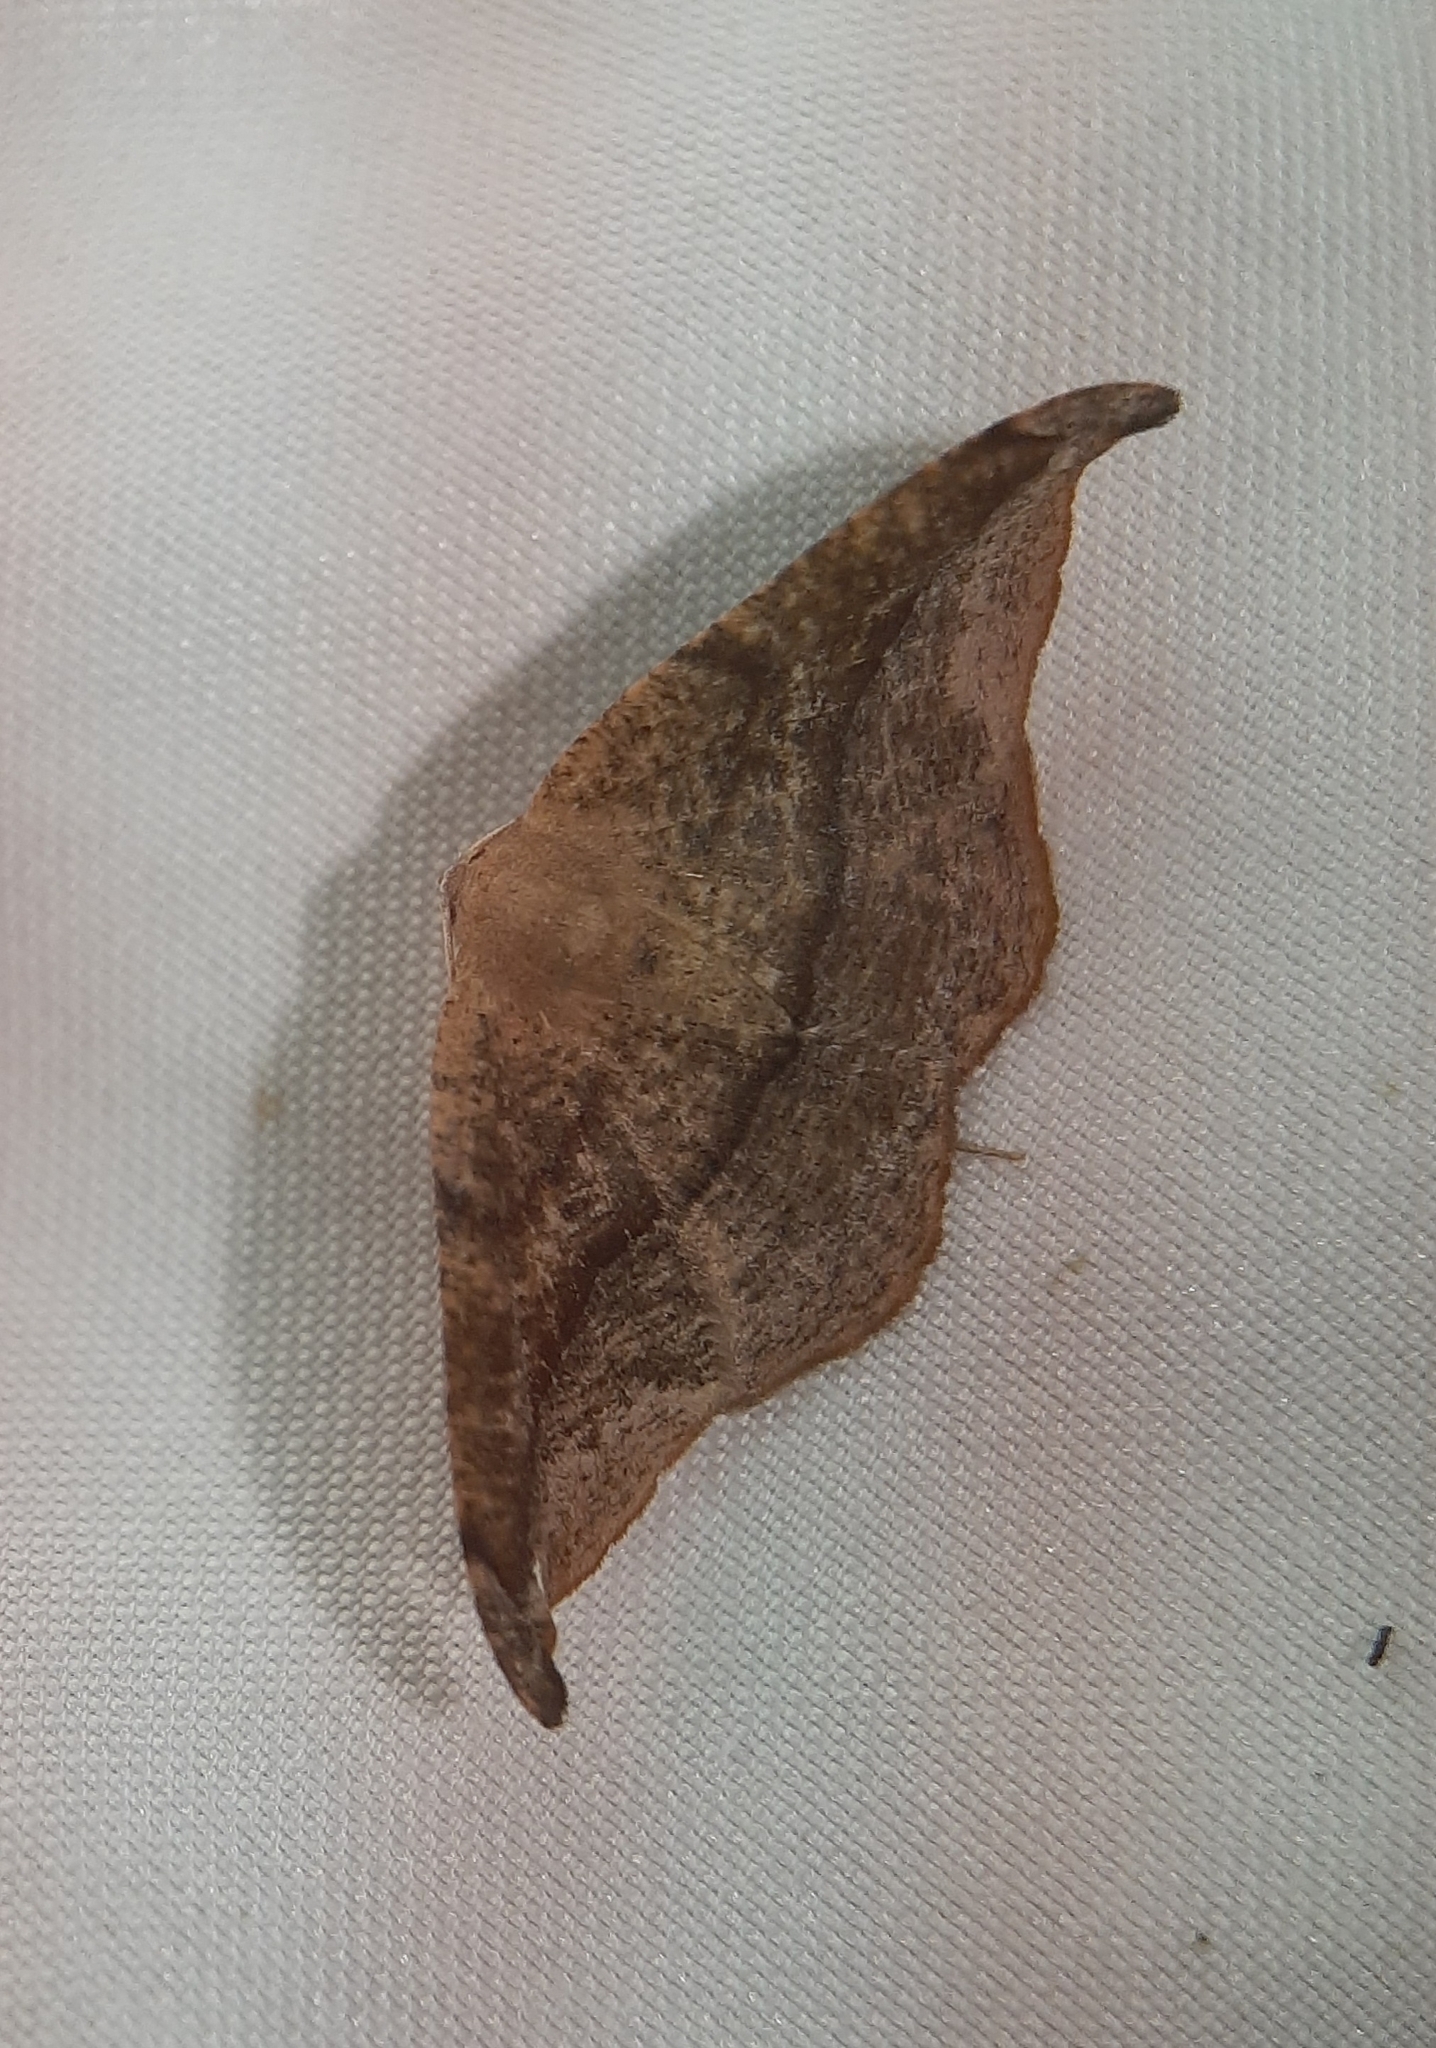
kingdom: Animalia
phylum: Arthropoda
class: Insecta
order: Lepidoptera
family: Geometridae
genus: Patalene
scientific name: Patalene olyzonaria
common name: Juniper geometer moth
